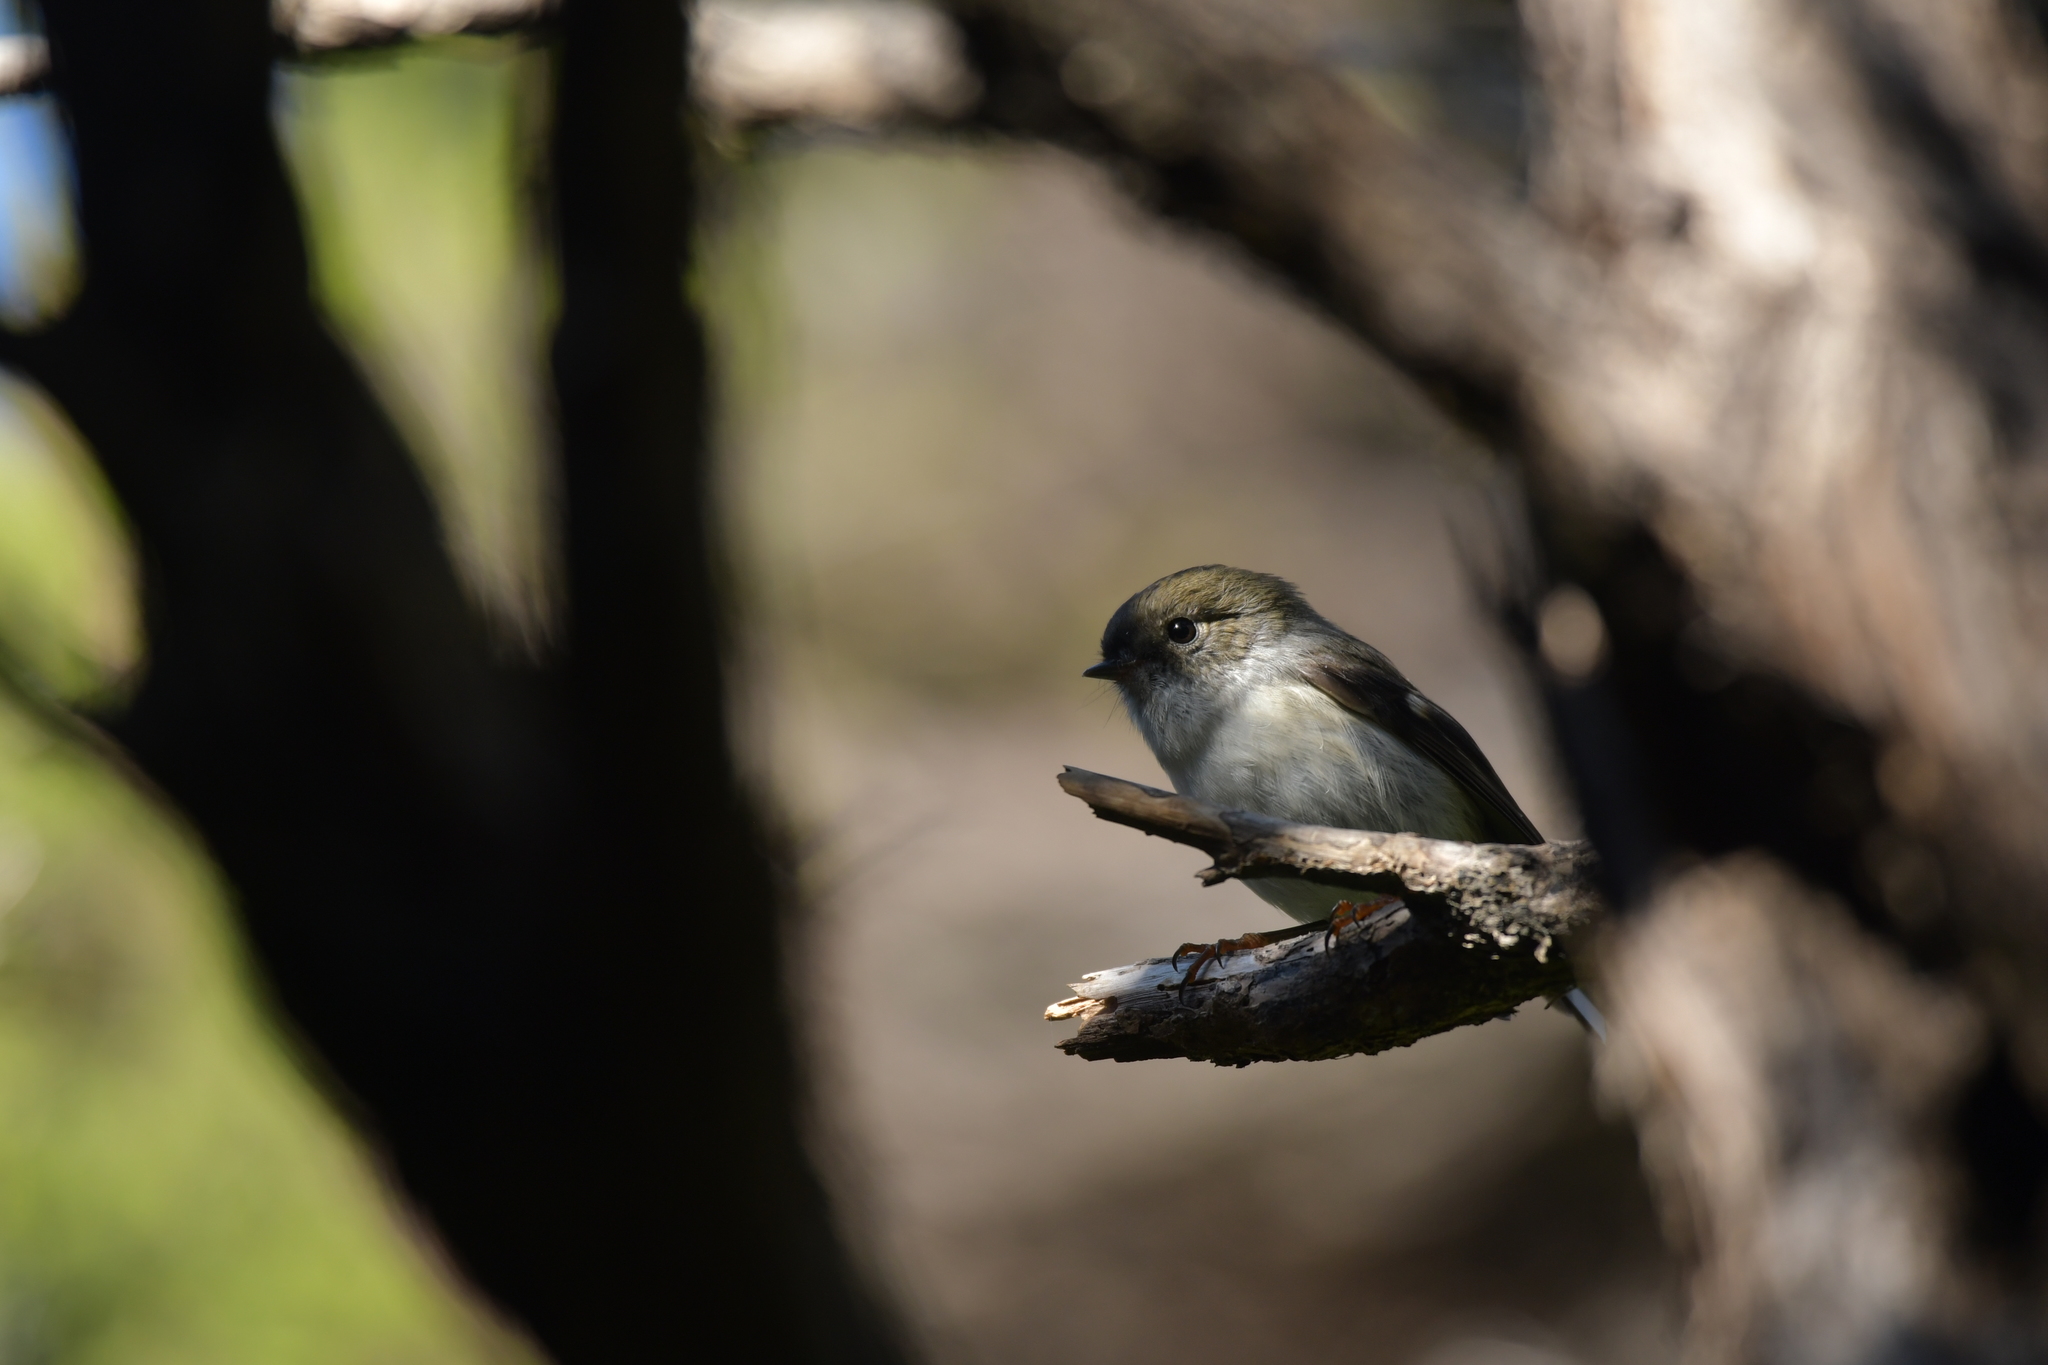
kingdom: Animalia
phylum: Chordata
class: Aves
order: Passeriformes
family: Petroicidae
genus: Petroica
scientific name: Petroica macrocephala
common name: Tomtit
